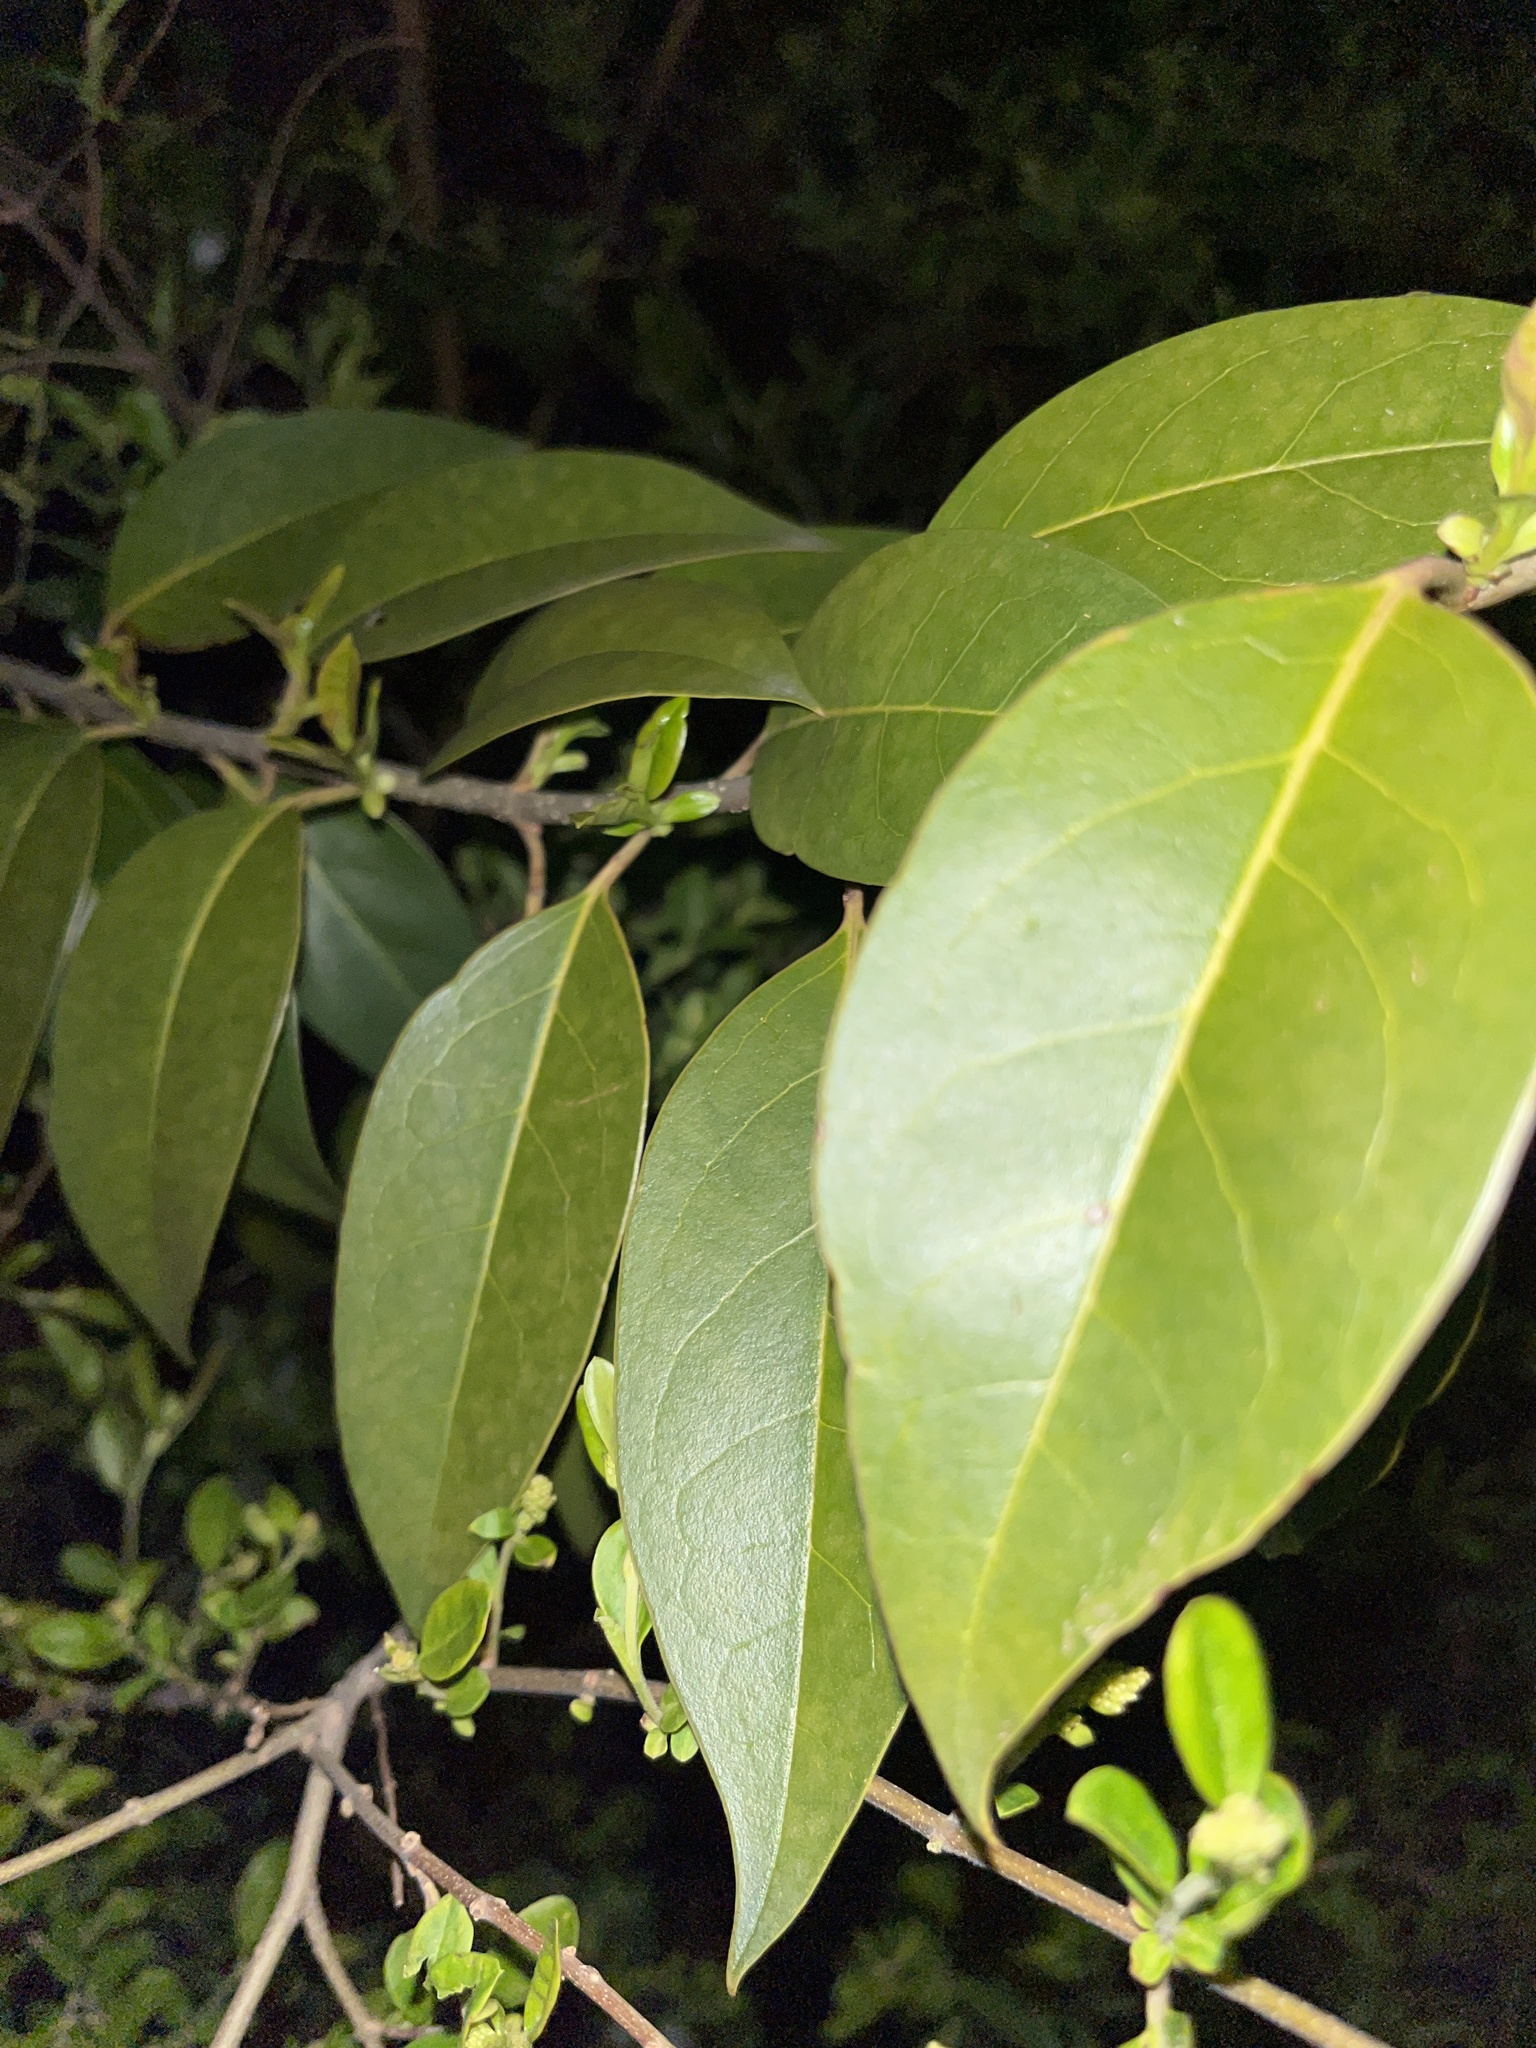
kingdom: Plantae
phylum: Tracheophyta
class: Magnoliopsida
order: Lamiales
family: Oleaceae
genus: Ligustrum
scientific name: Ligustrum lucidum
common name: Glossy privet
